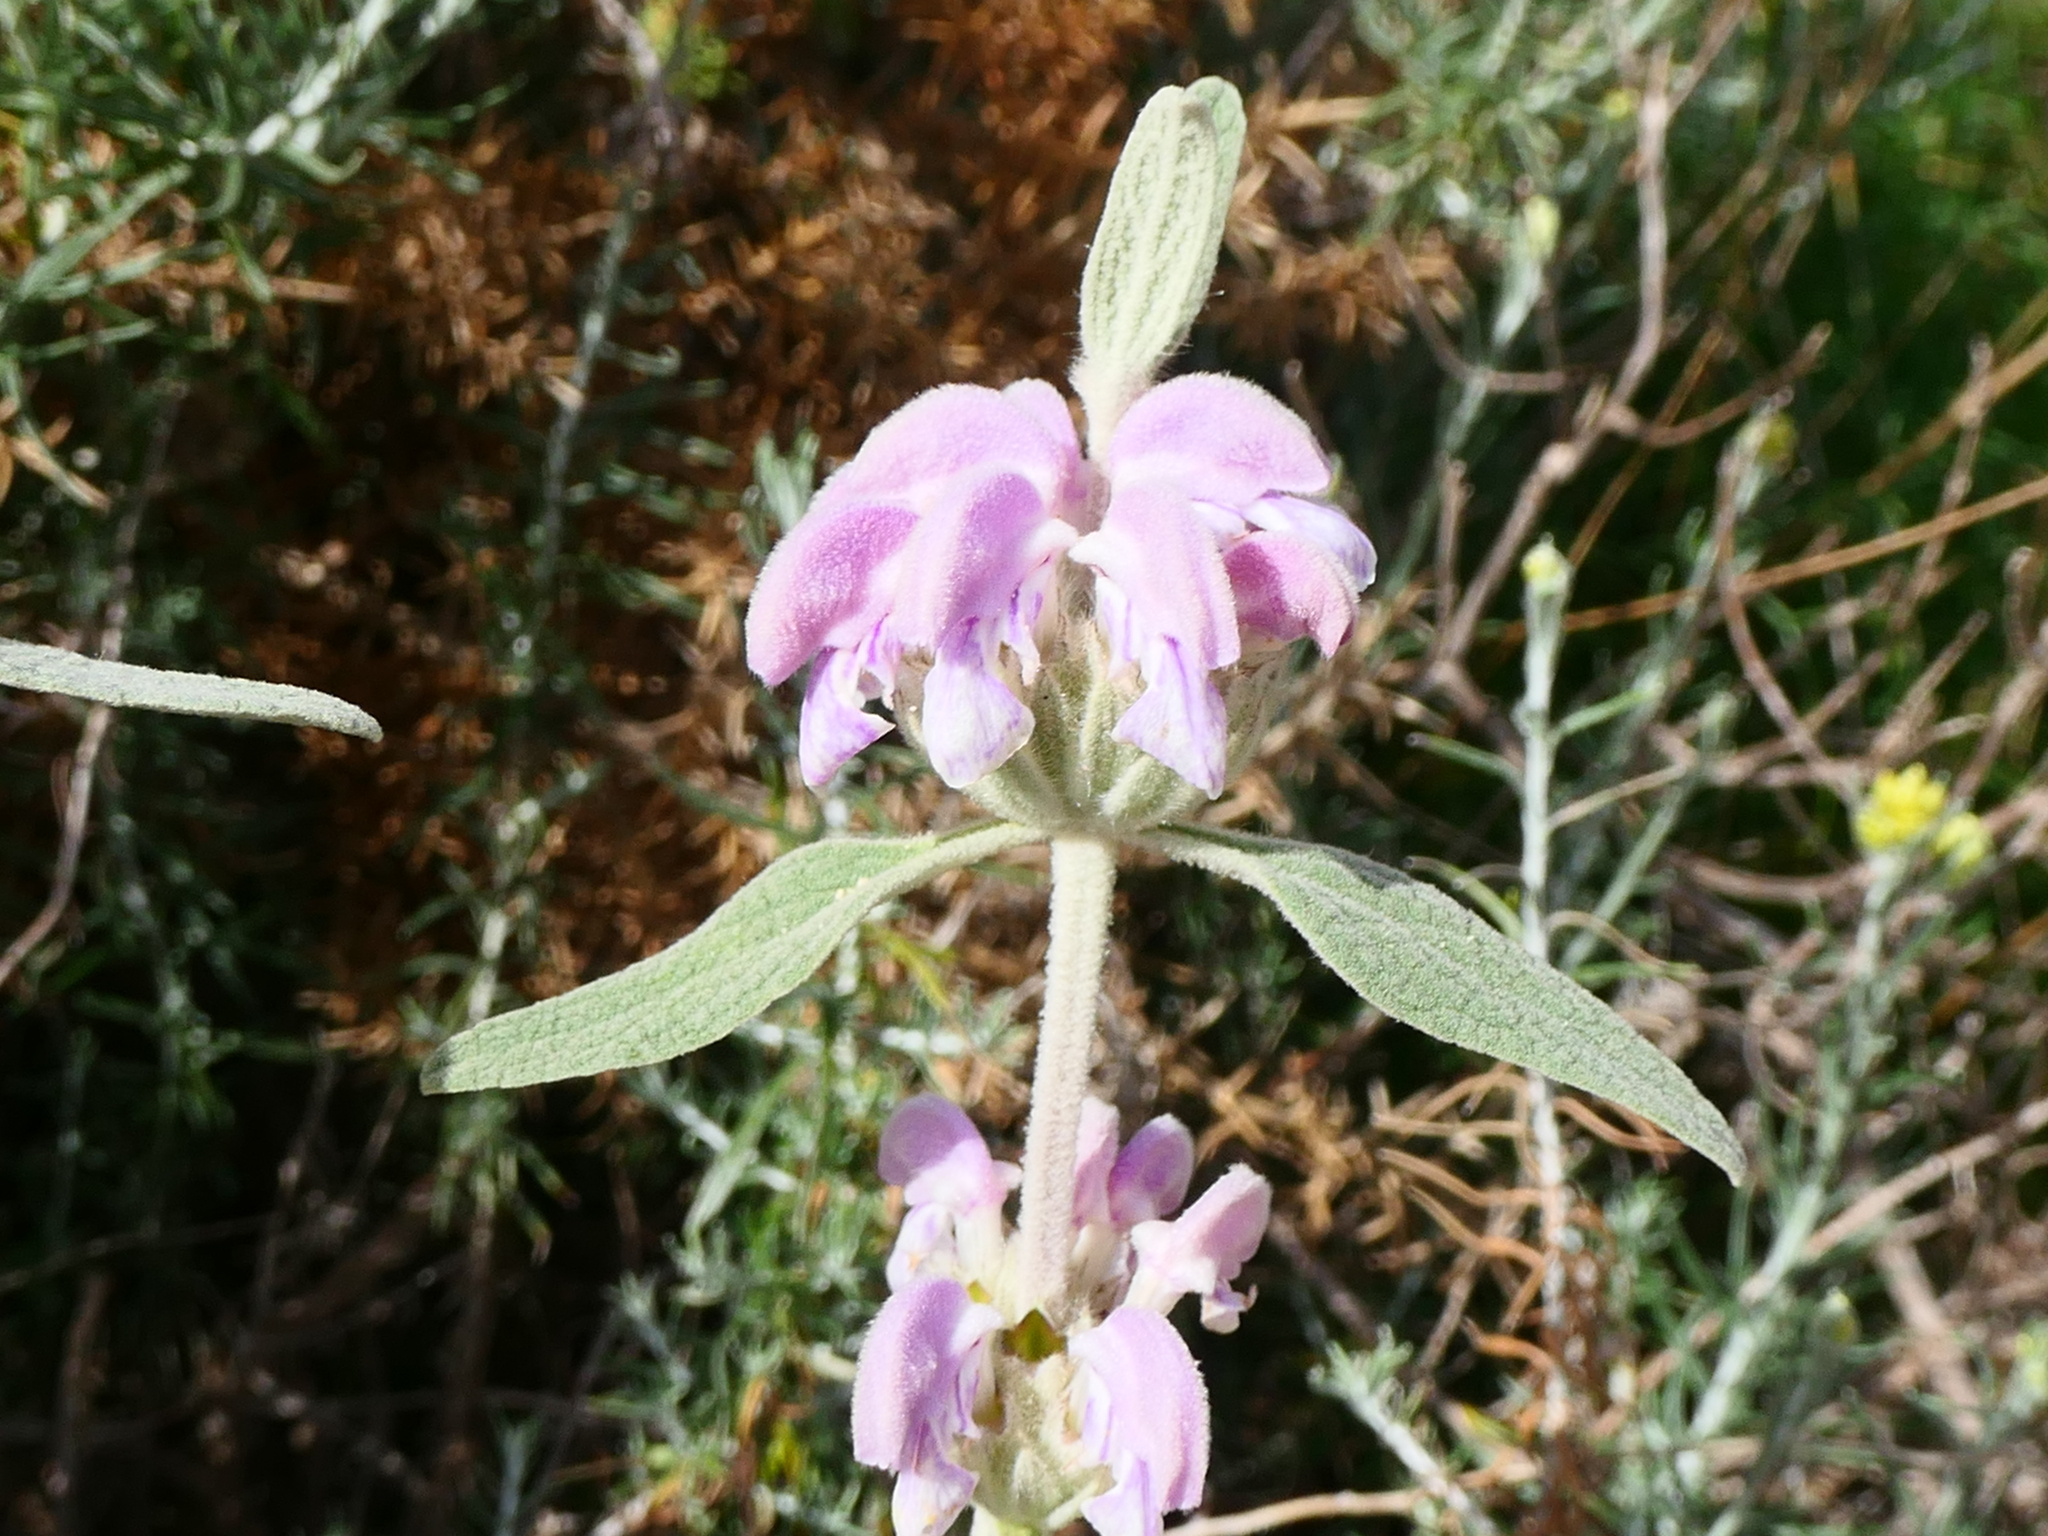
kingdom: Plantae
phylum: Tracheophyta
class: Magnoliopsida
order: Lamiales
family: Lamiaceae
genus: Phlomis
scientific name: Phlomis purpurea
